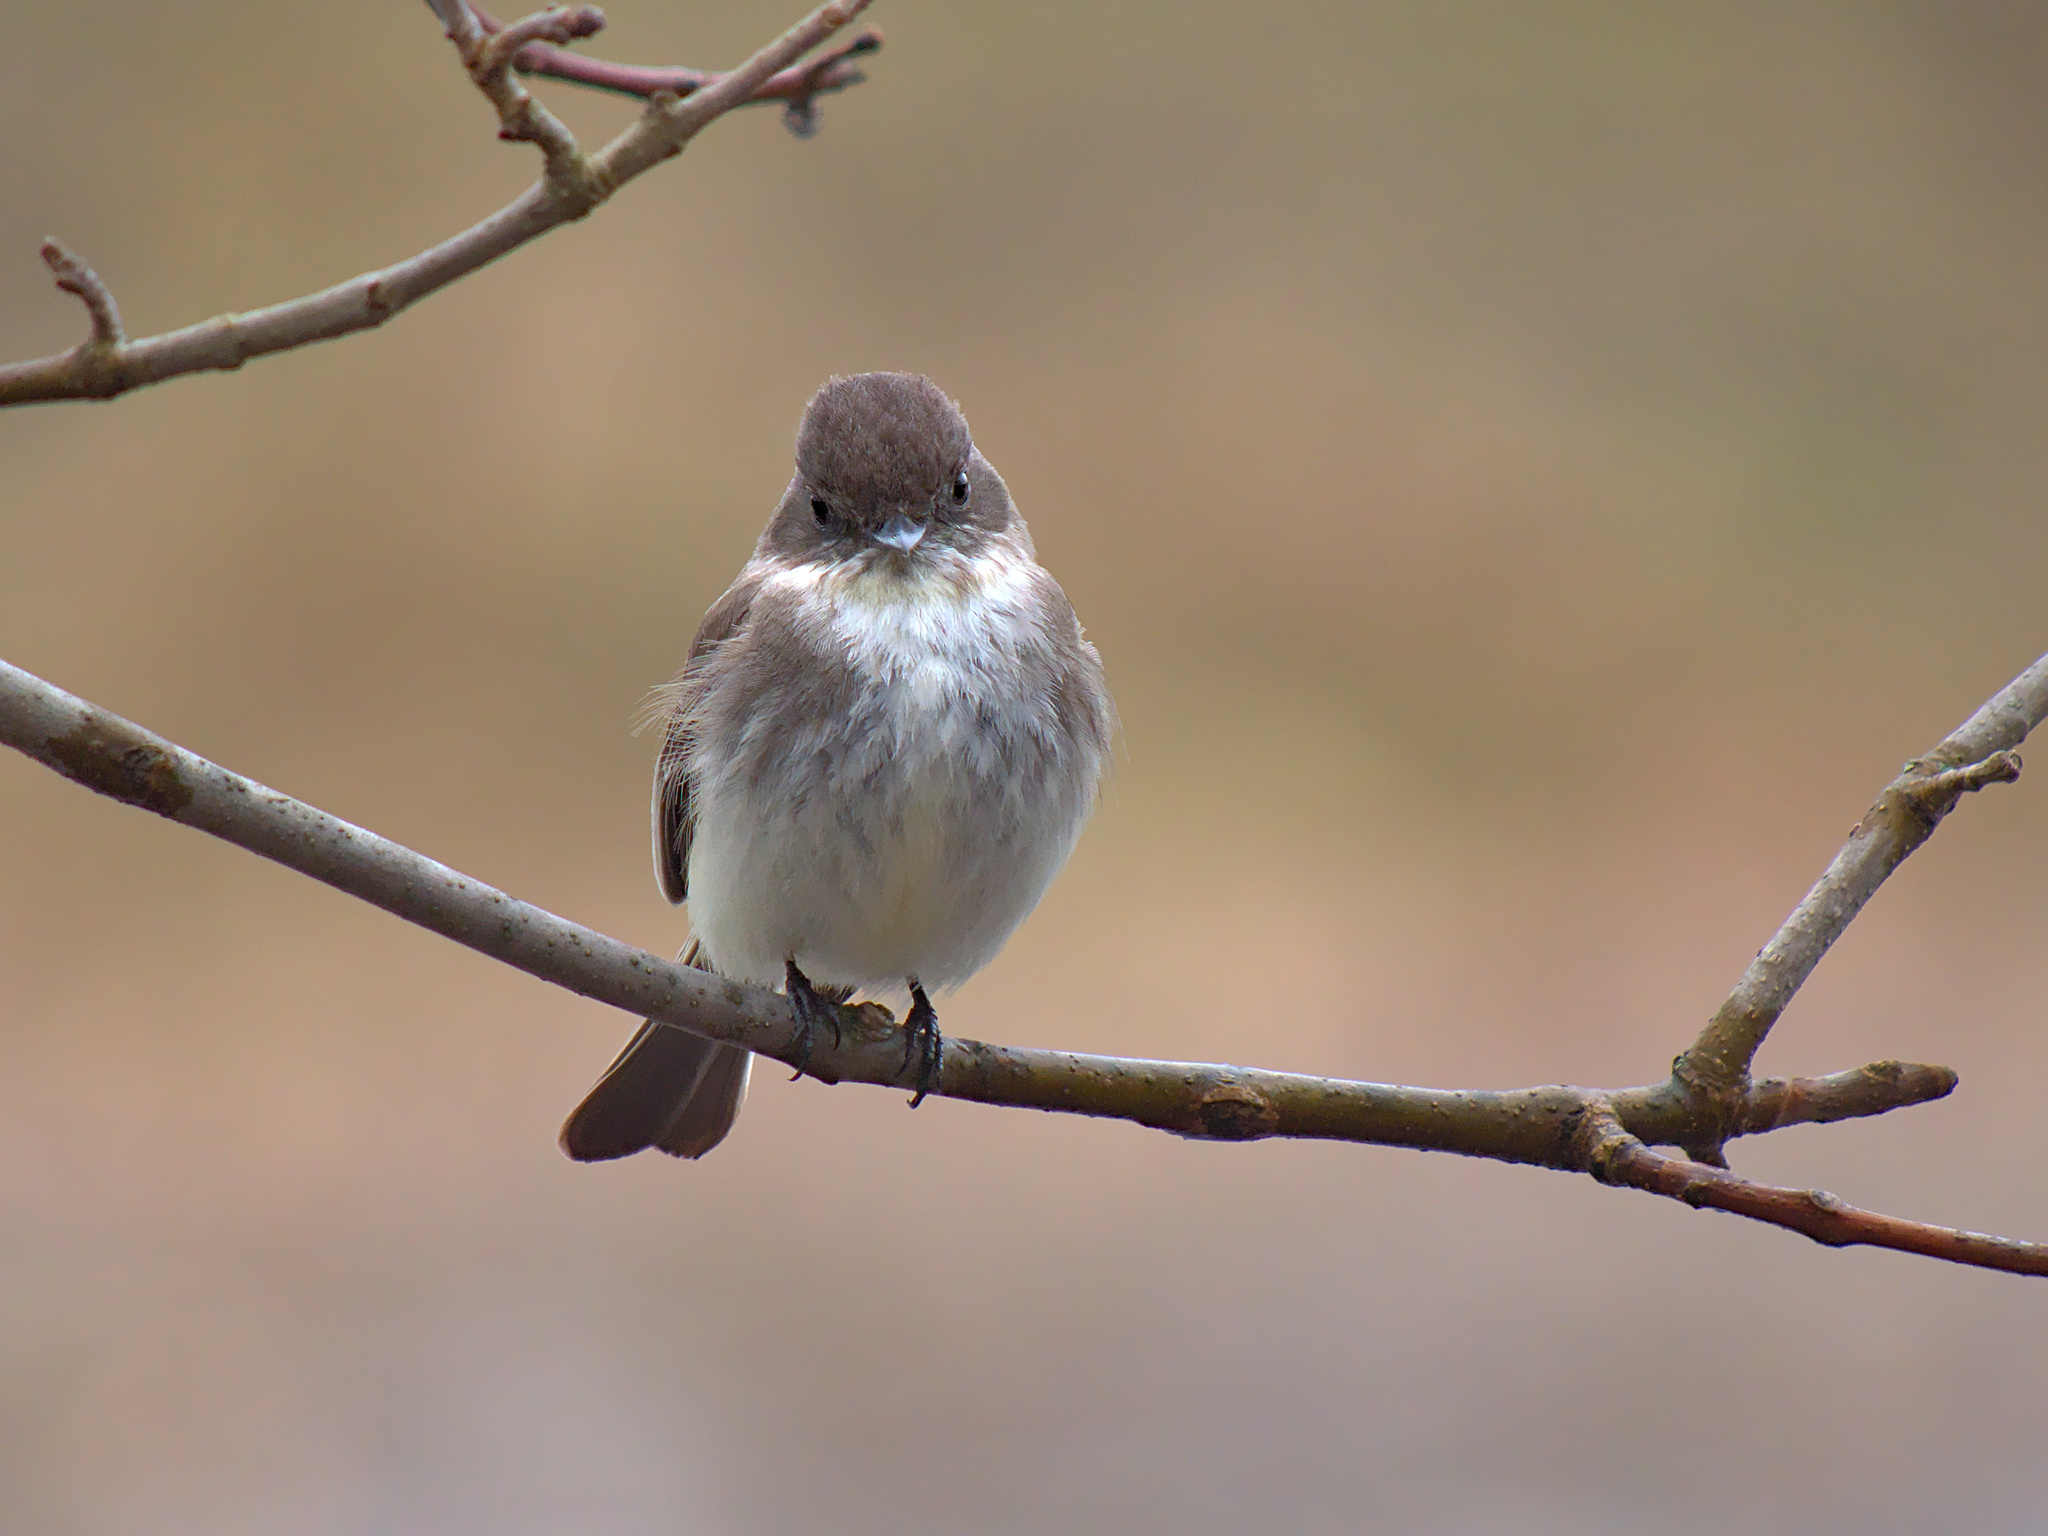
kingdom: Animalia
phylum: Chordata
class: Aves
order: Passeriformes
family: Tyrannidae
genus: Sayornis
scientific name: Sayornis phoebe
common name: Eastern phoebe
